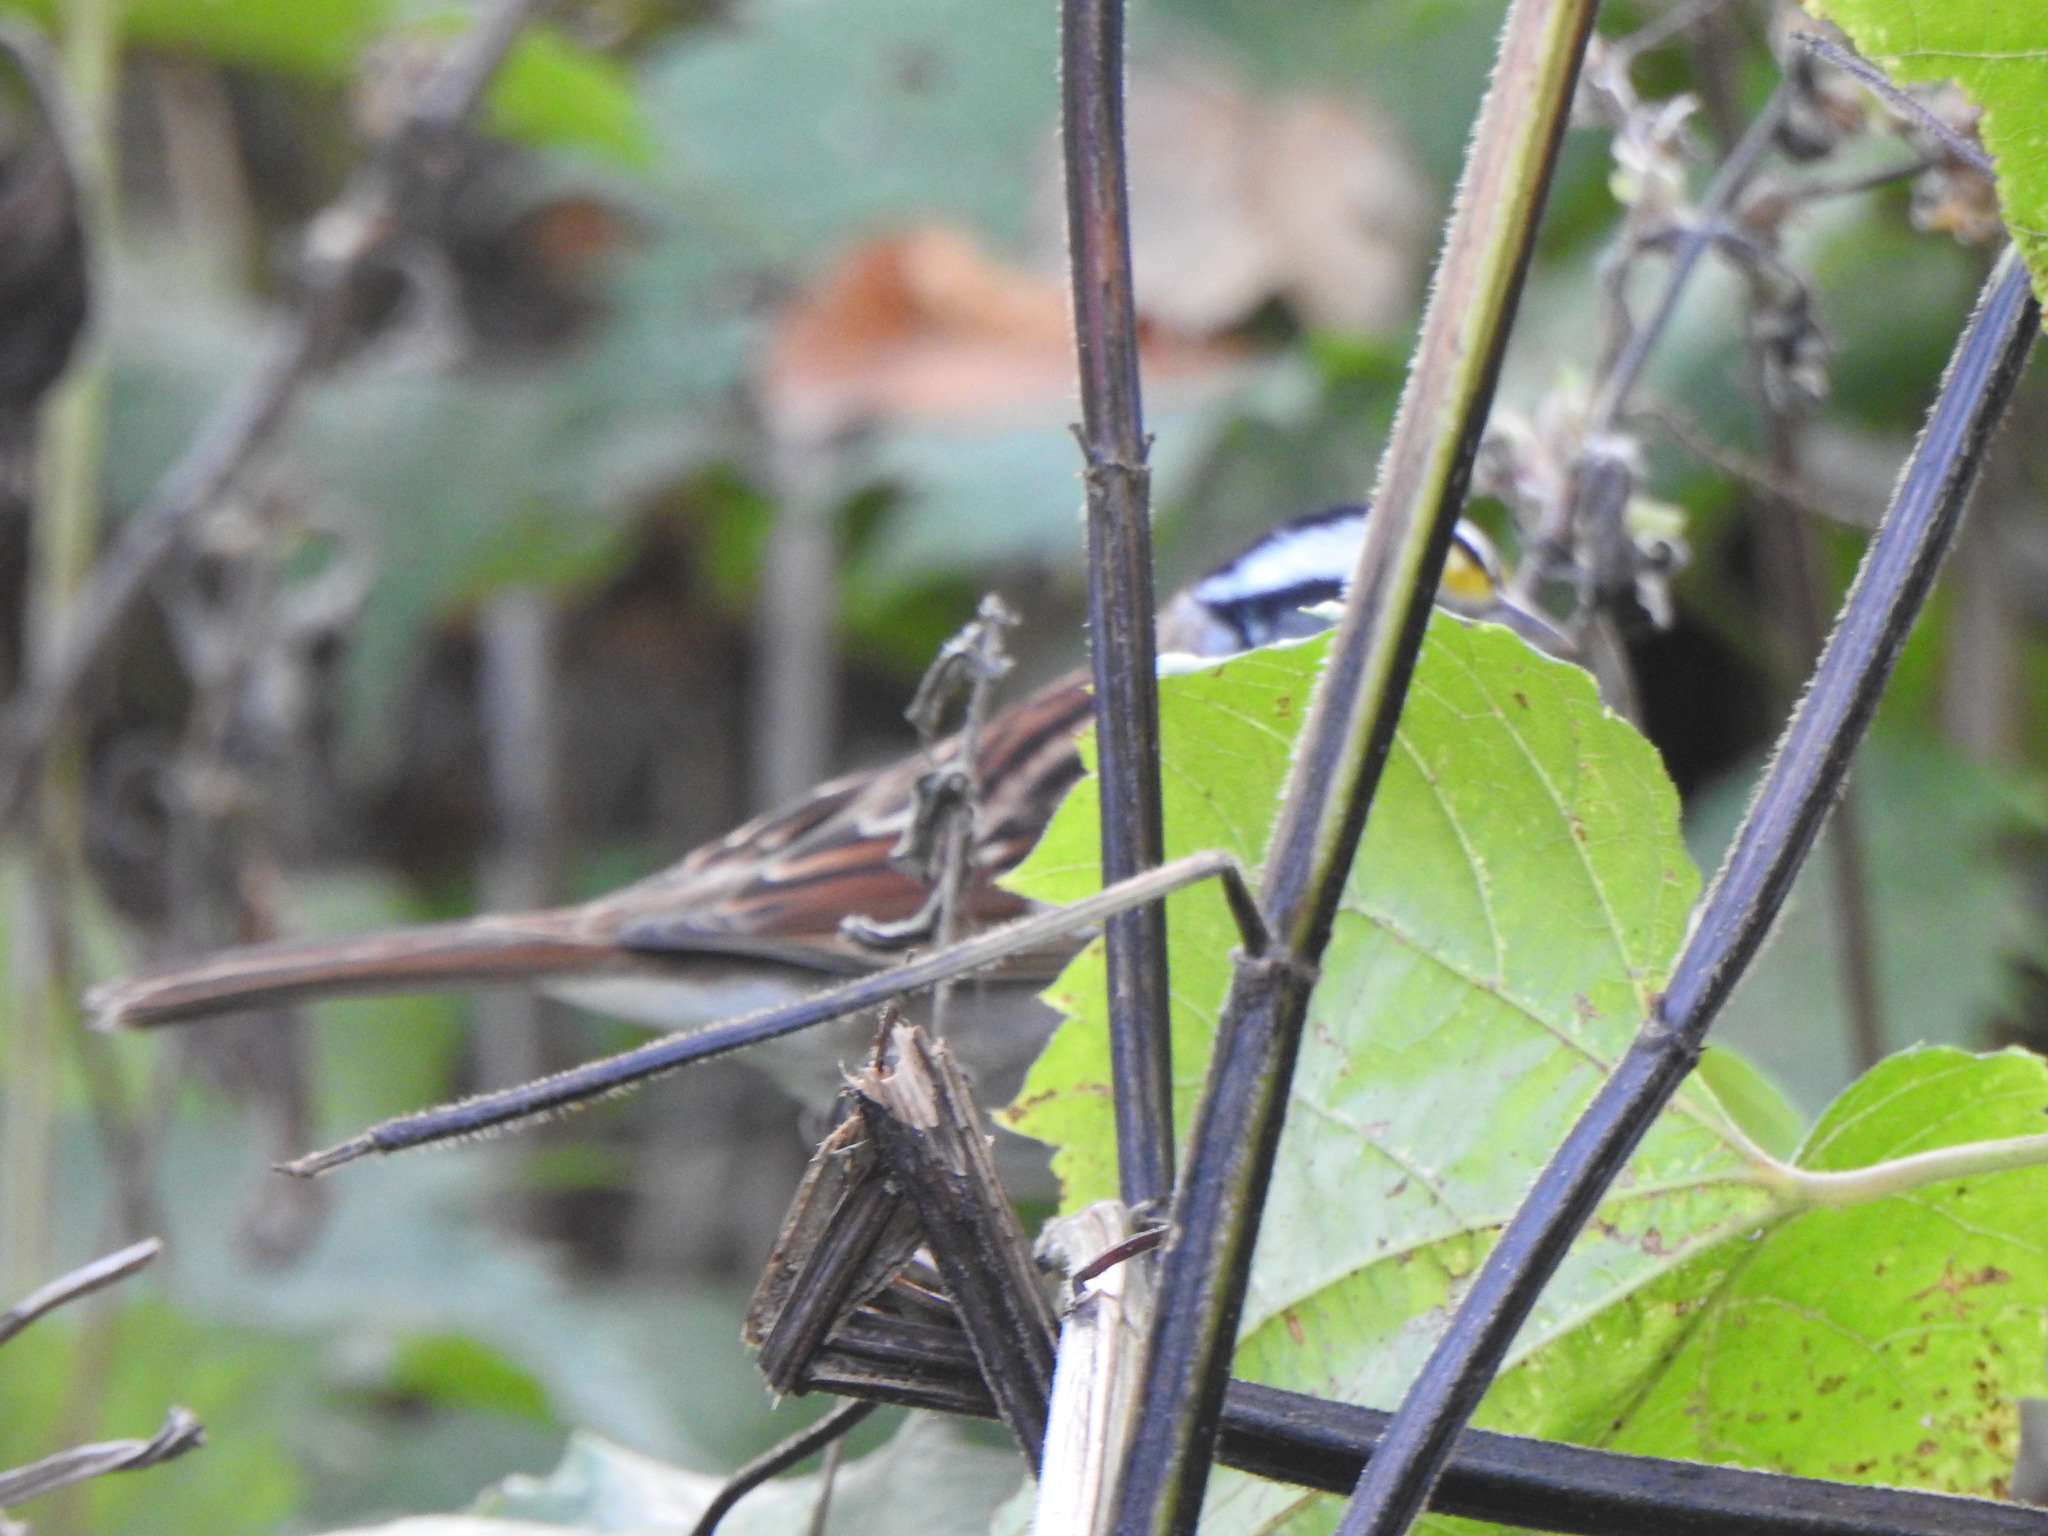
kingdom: Animalia
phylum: Chordata
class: Aves
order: Passeriformes
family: Passerellidae
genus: Zonotrichia
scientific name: Zonotrichia albicollis
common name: White-throated sparrow
